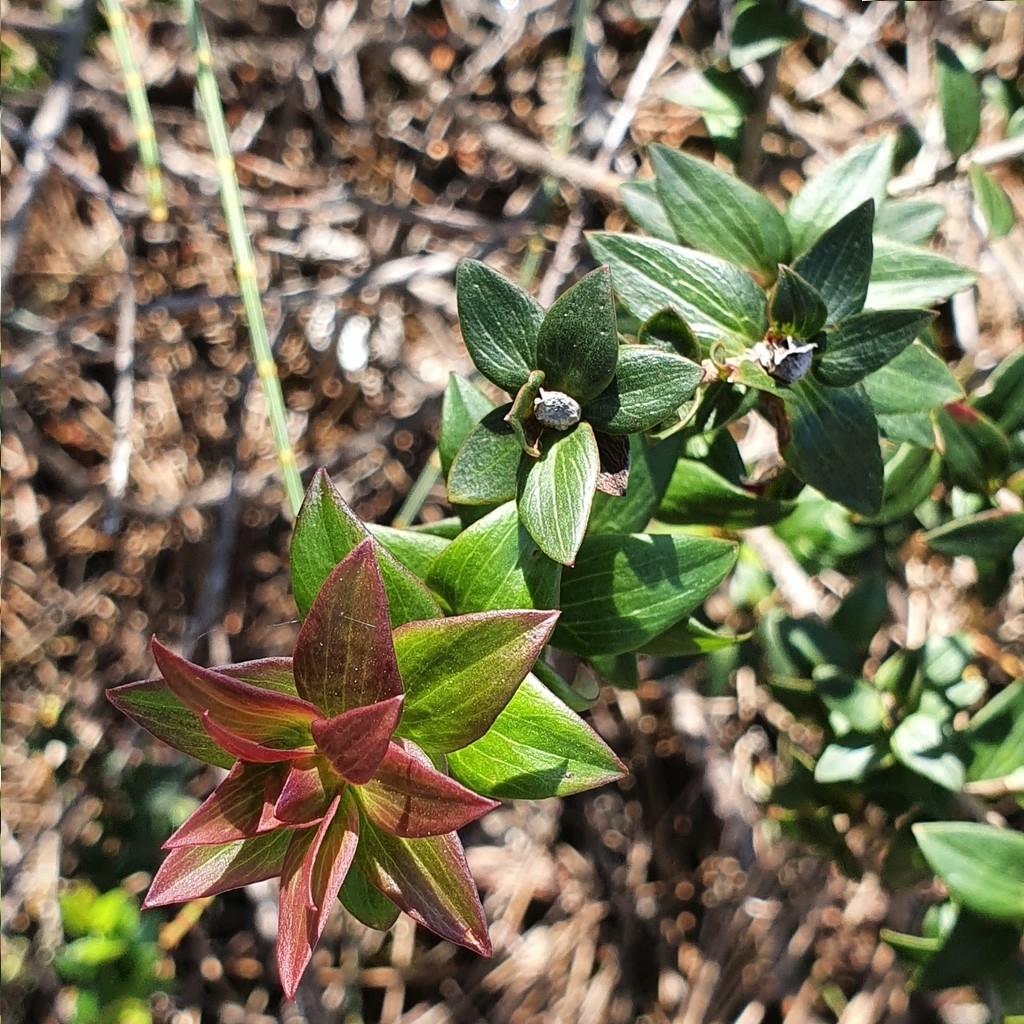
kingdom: Plantae
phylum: Tracheophyta
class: Magnoliopsida
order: Apiales
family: Apiaceae
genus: Platysace
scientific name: Platysace lanceolata
